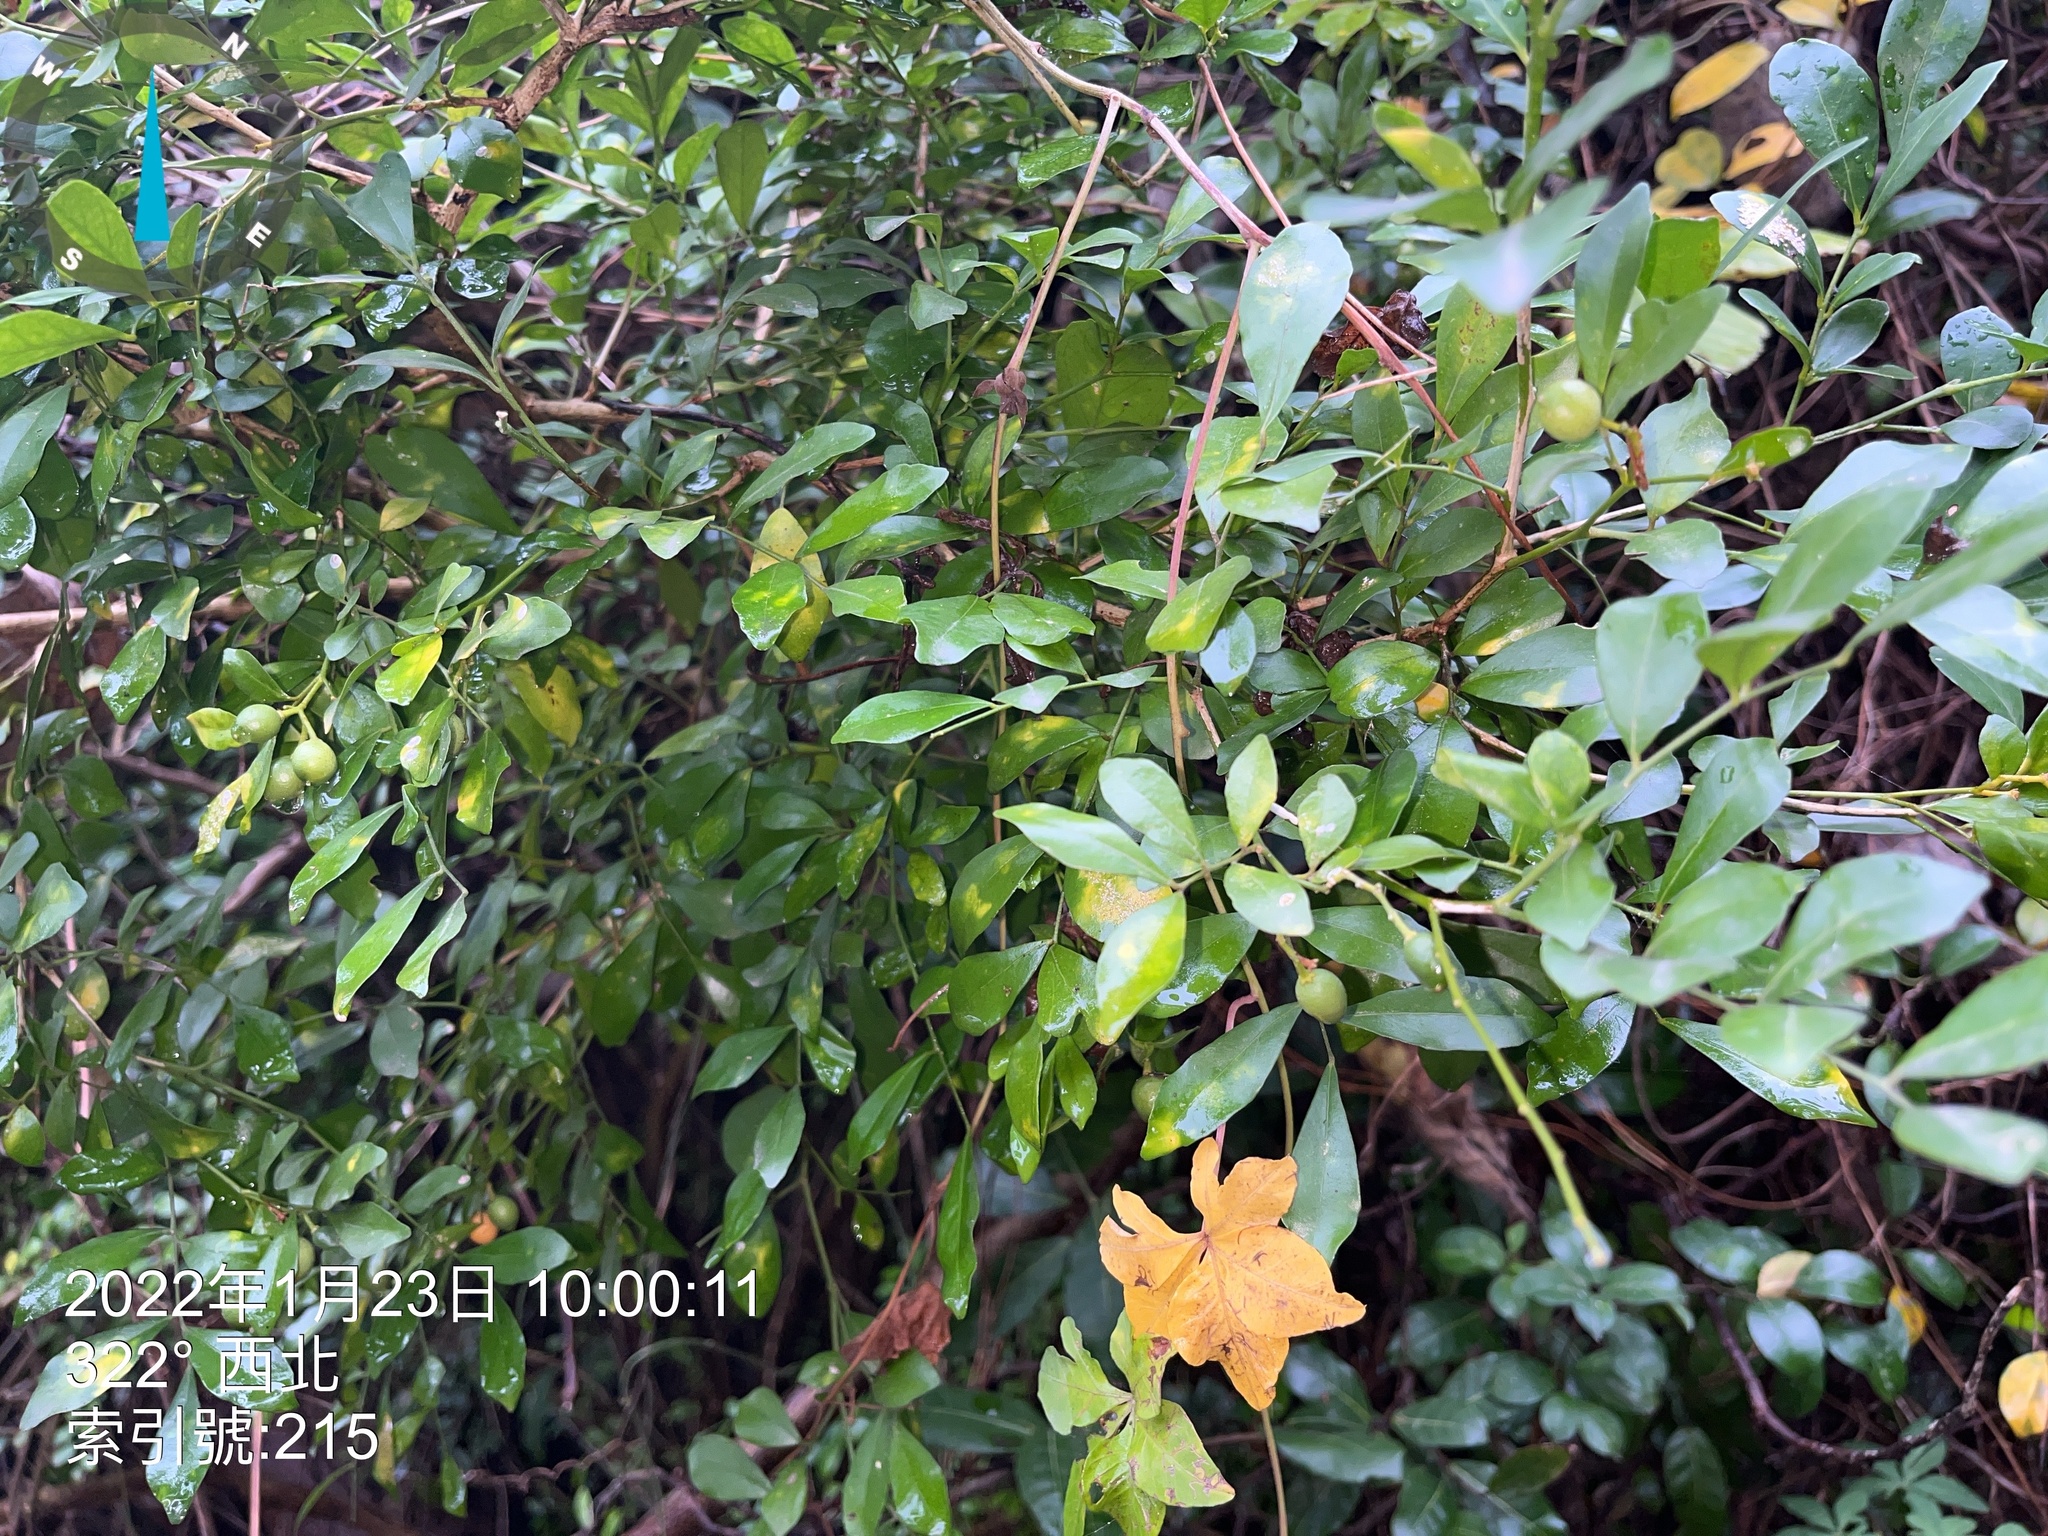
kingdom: Plantae
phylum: Tracheophyta
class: Magnoliopsida
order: Sapindales
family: Rutaceae
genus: Murraya
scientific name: Murraya paniculata
